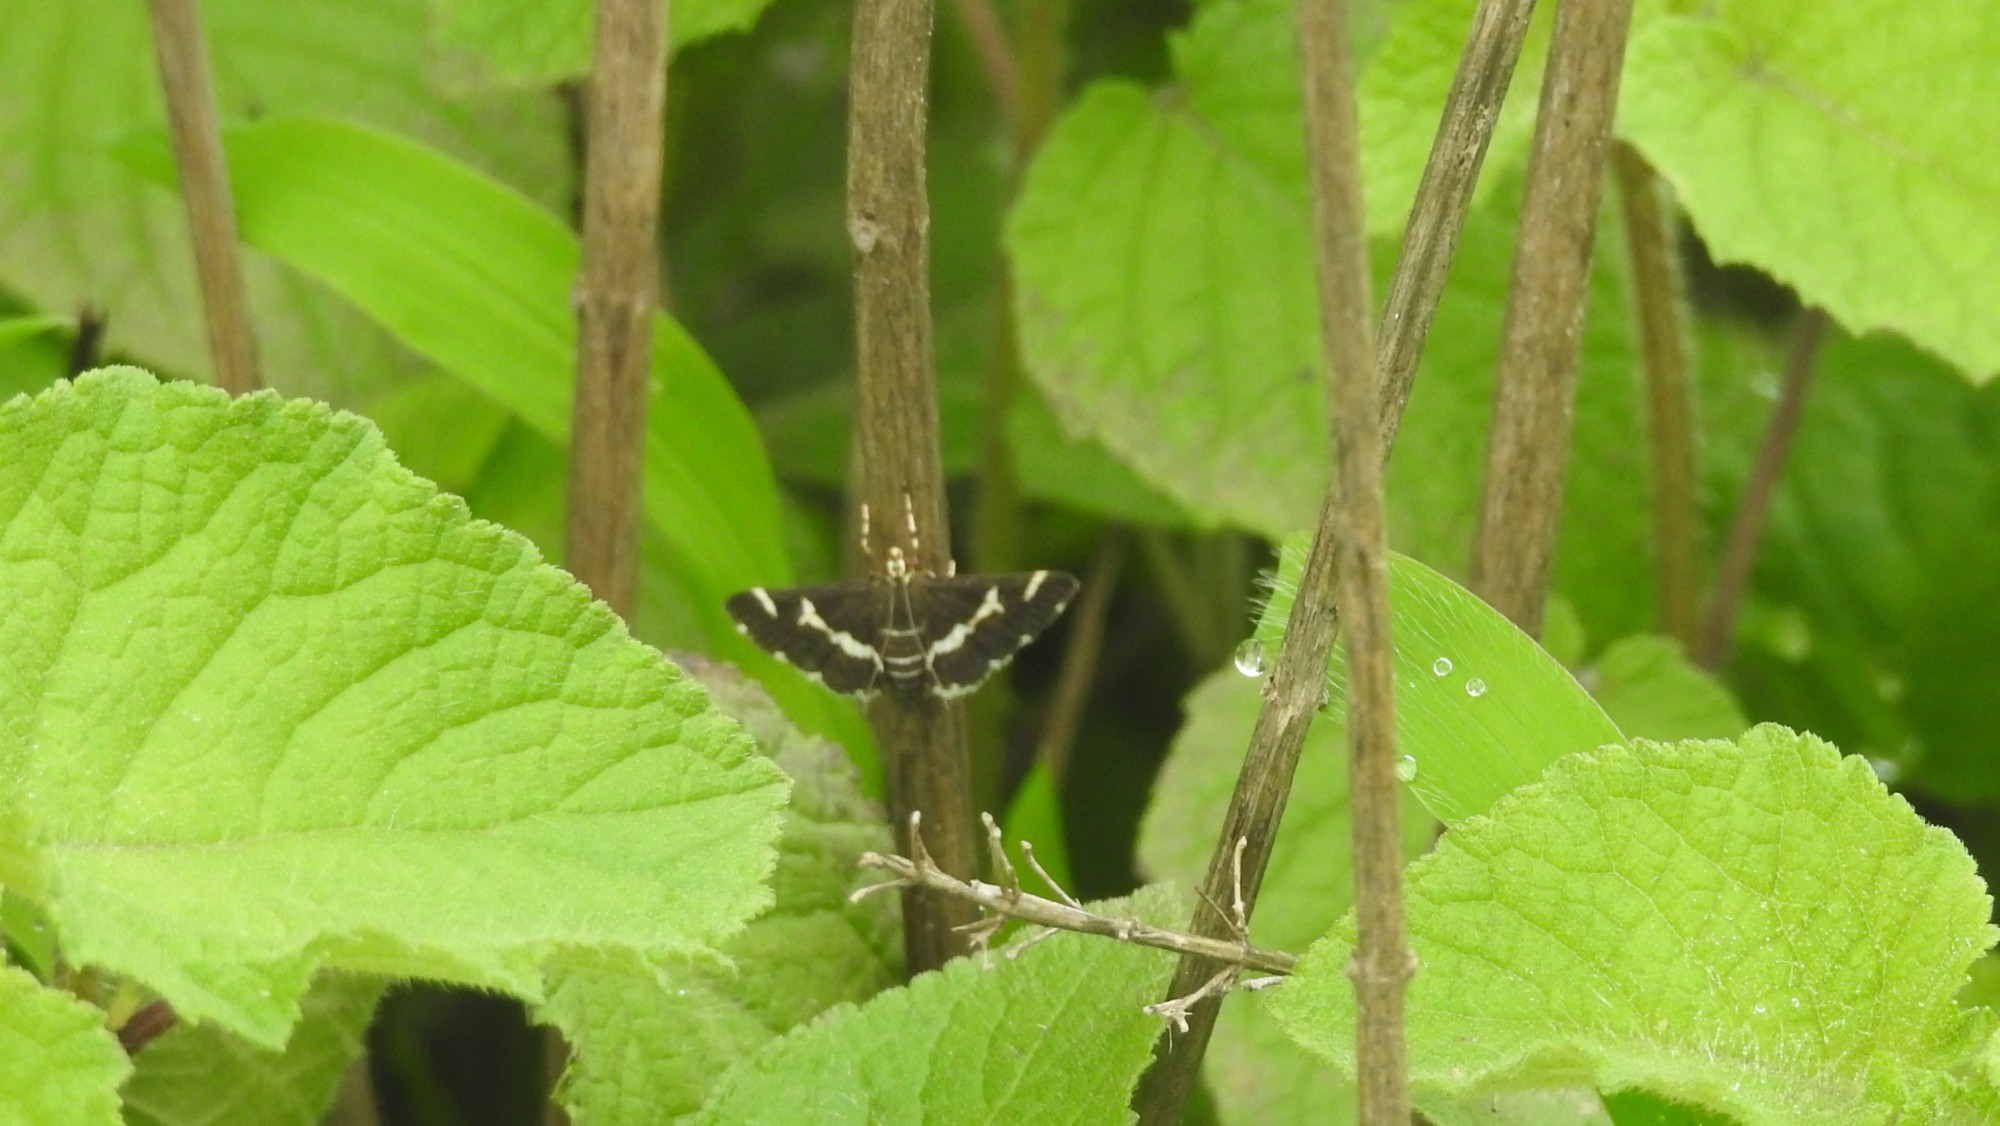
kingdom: Animalia
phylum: Arthropoda
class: Insecta
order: Lepidoptera
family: Crambidae
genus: Spoladea
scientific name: Spoladea recurvalis
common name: Beet webworm moth
